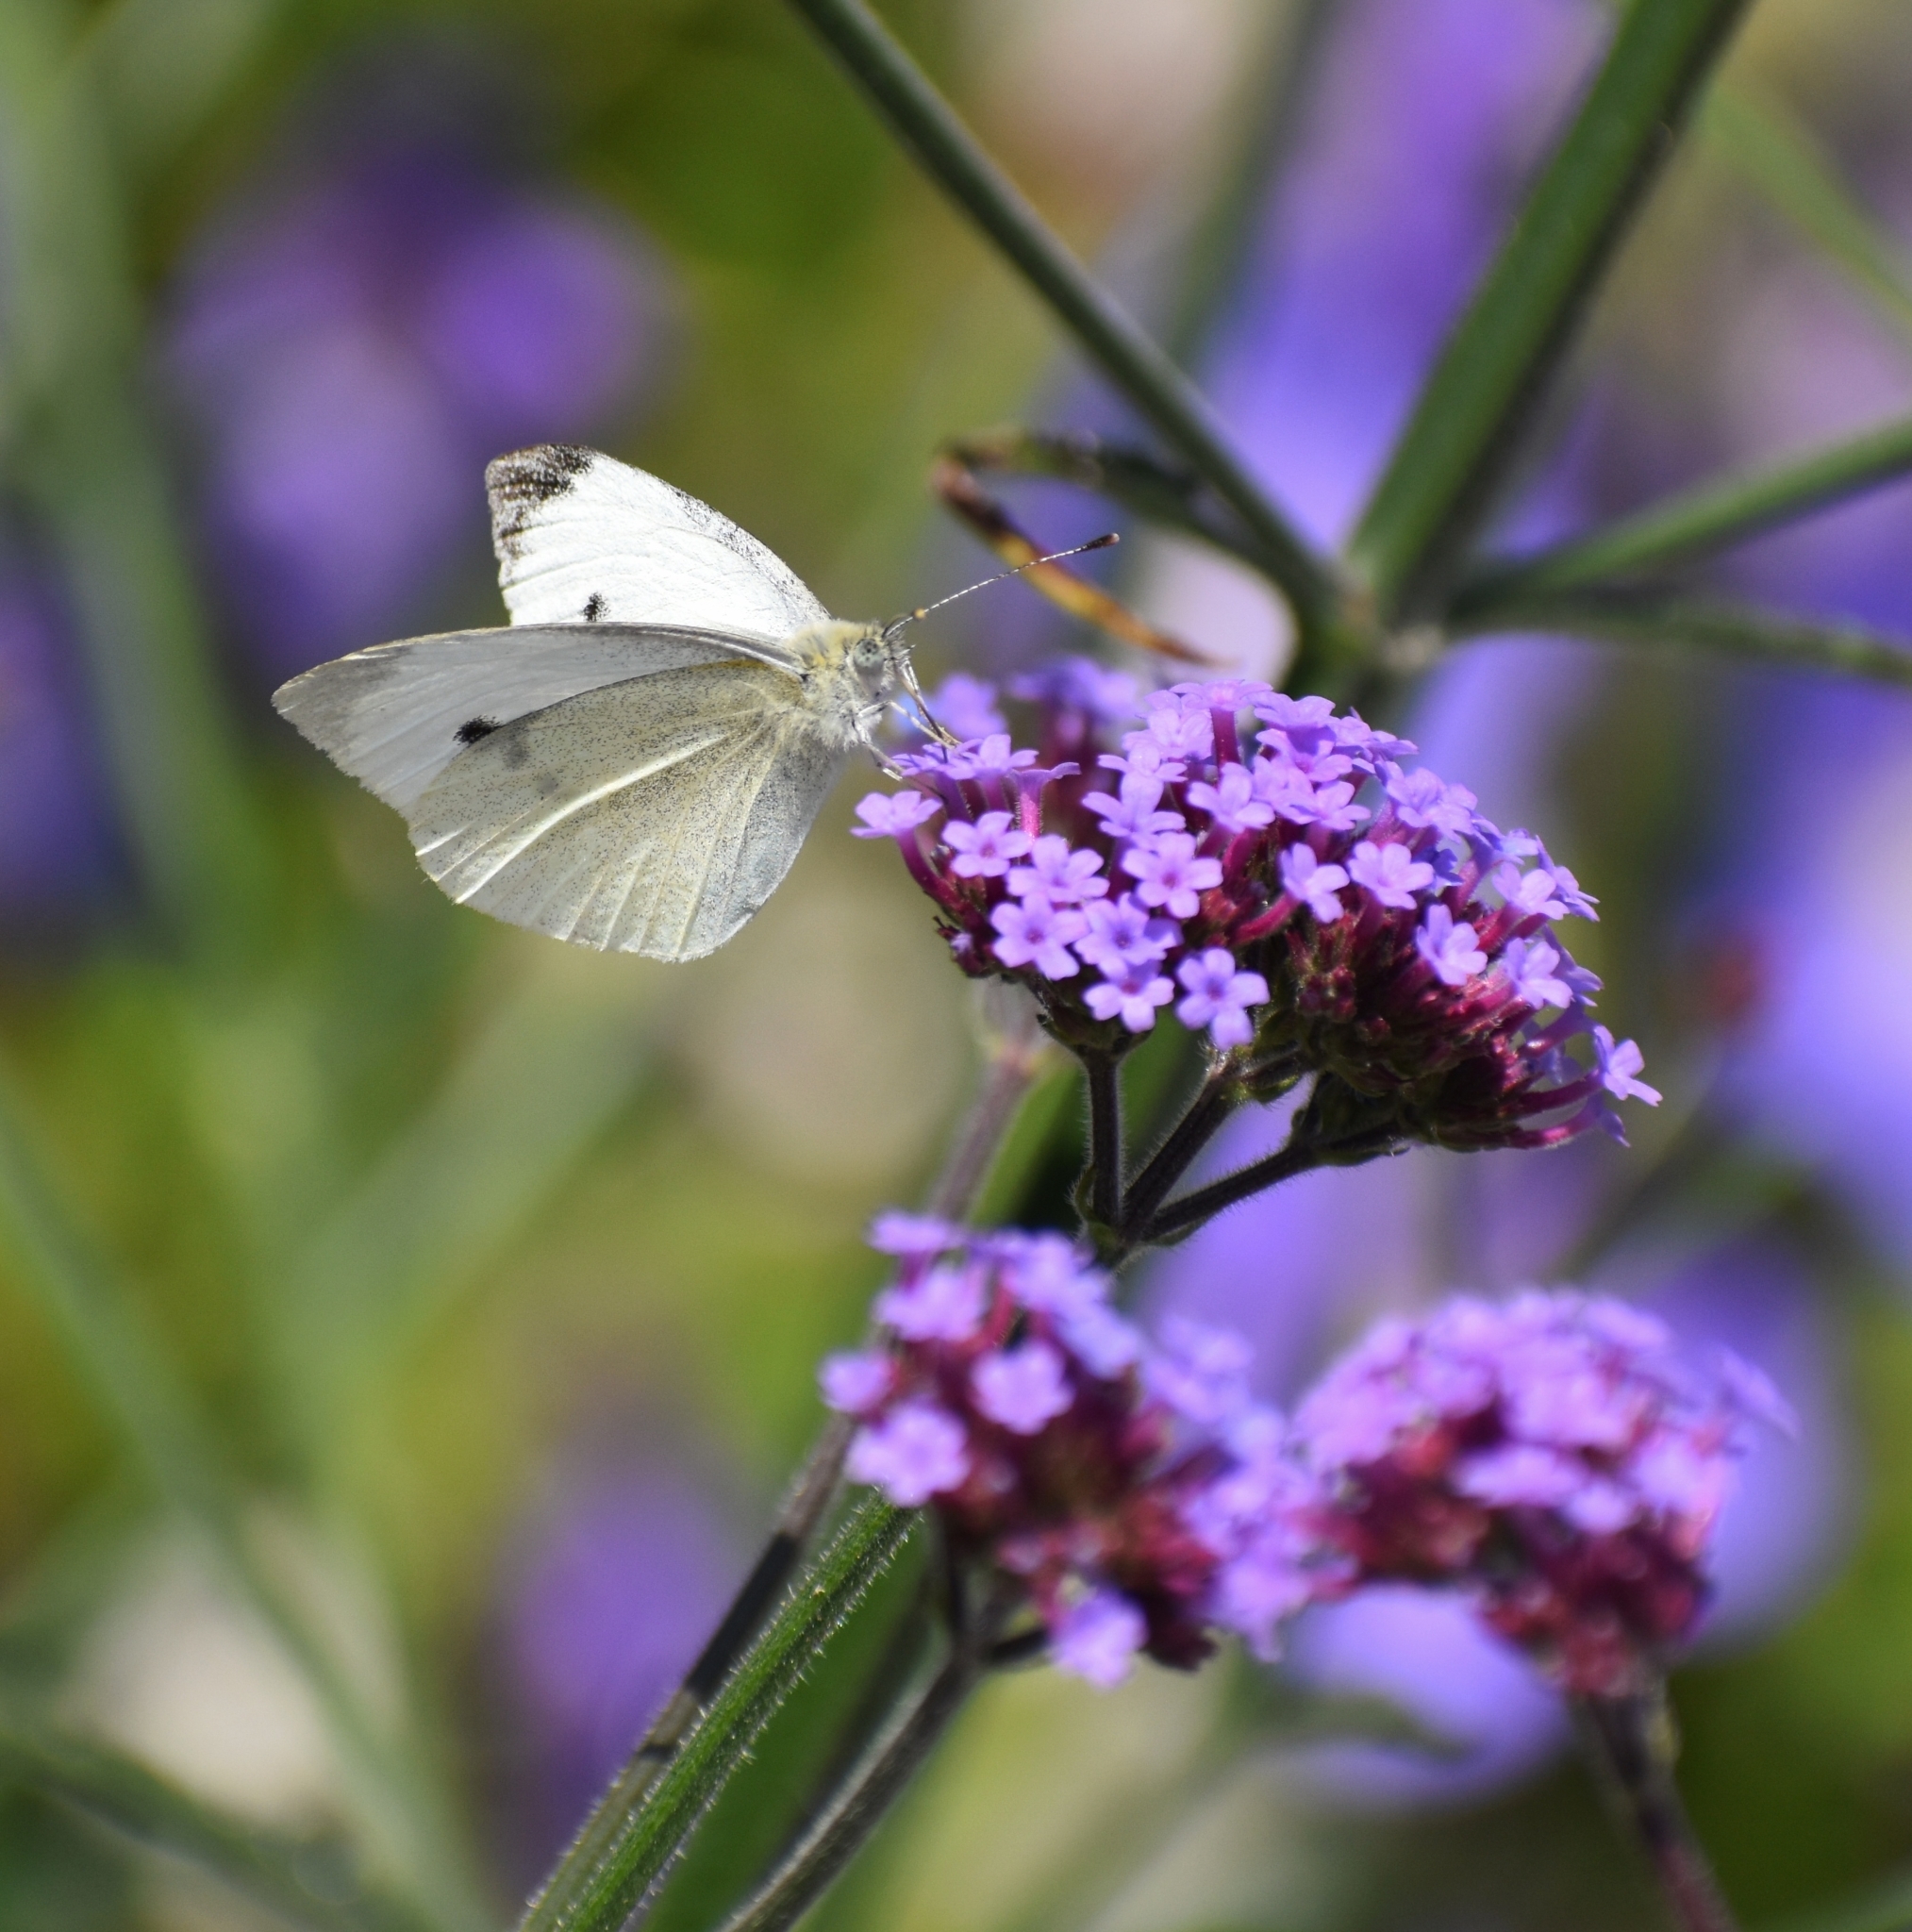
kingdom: Animalia
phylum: Arthropoda
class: Insecta
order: Lepidoptera
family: Pieridae
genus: Pieris
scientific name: Pieris rapae
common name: Small white
